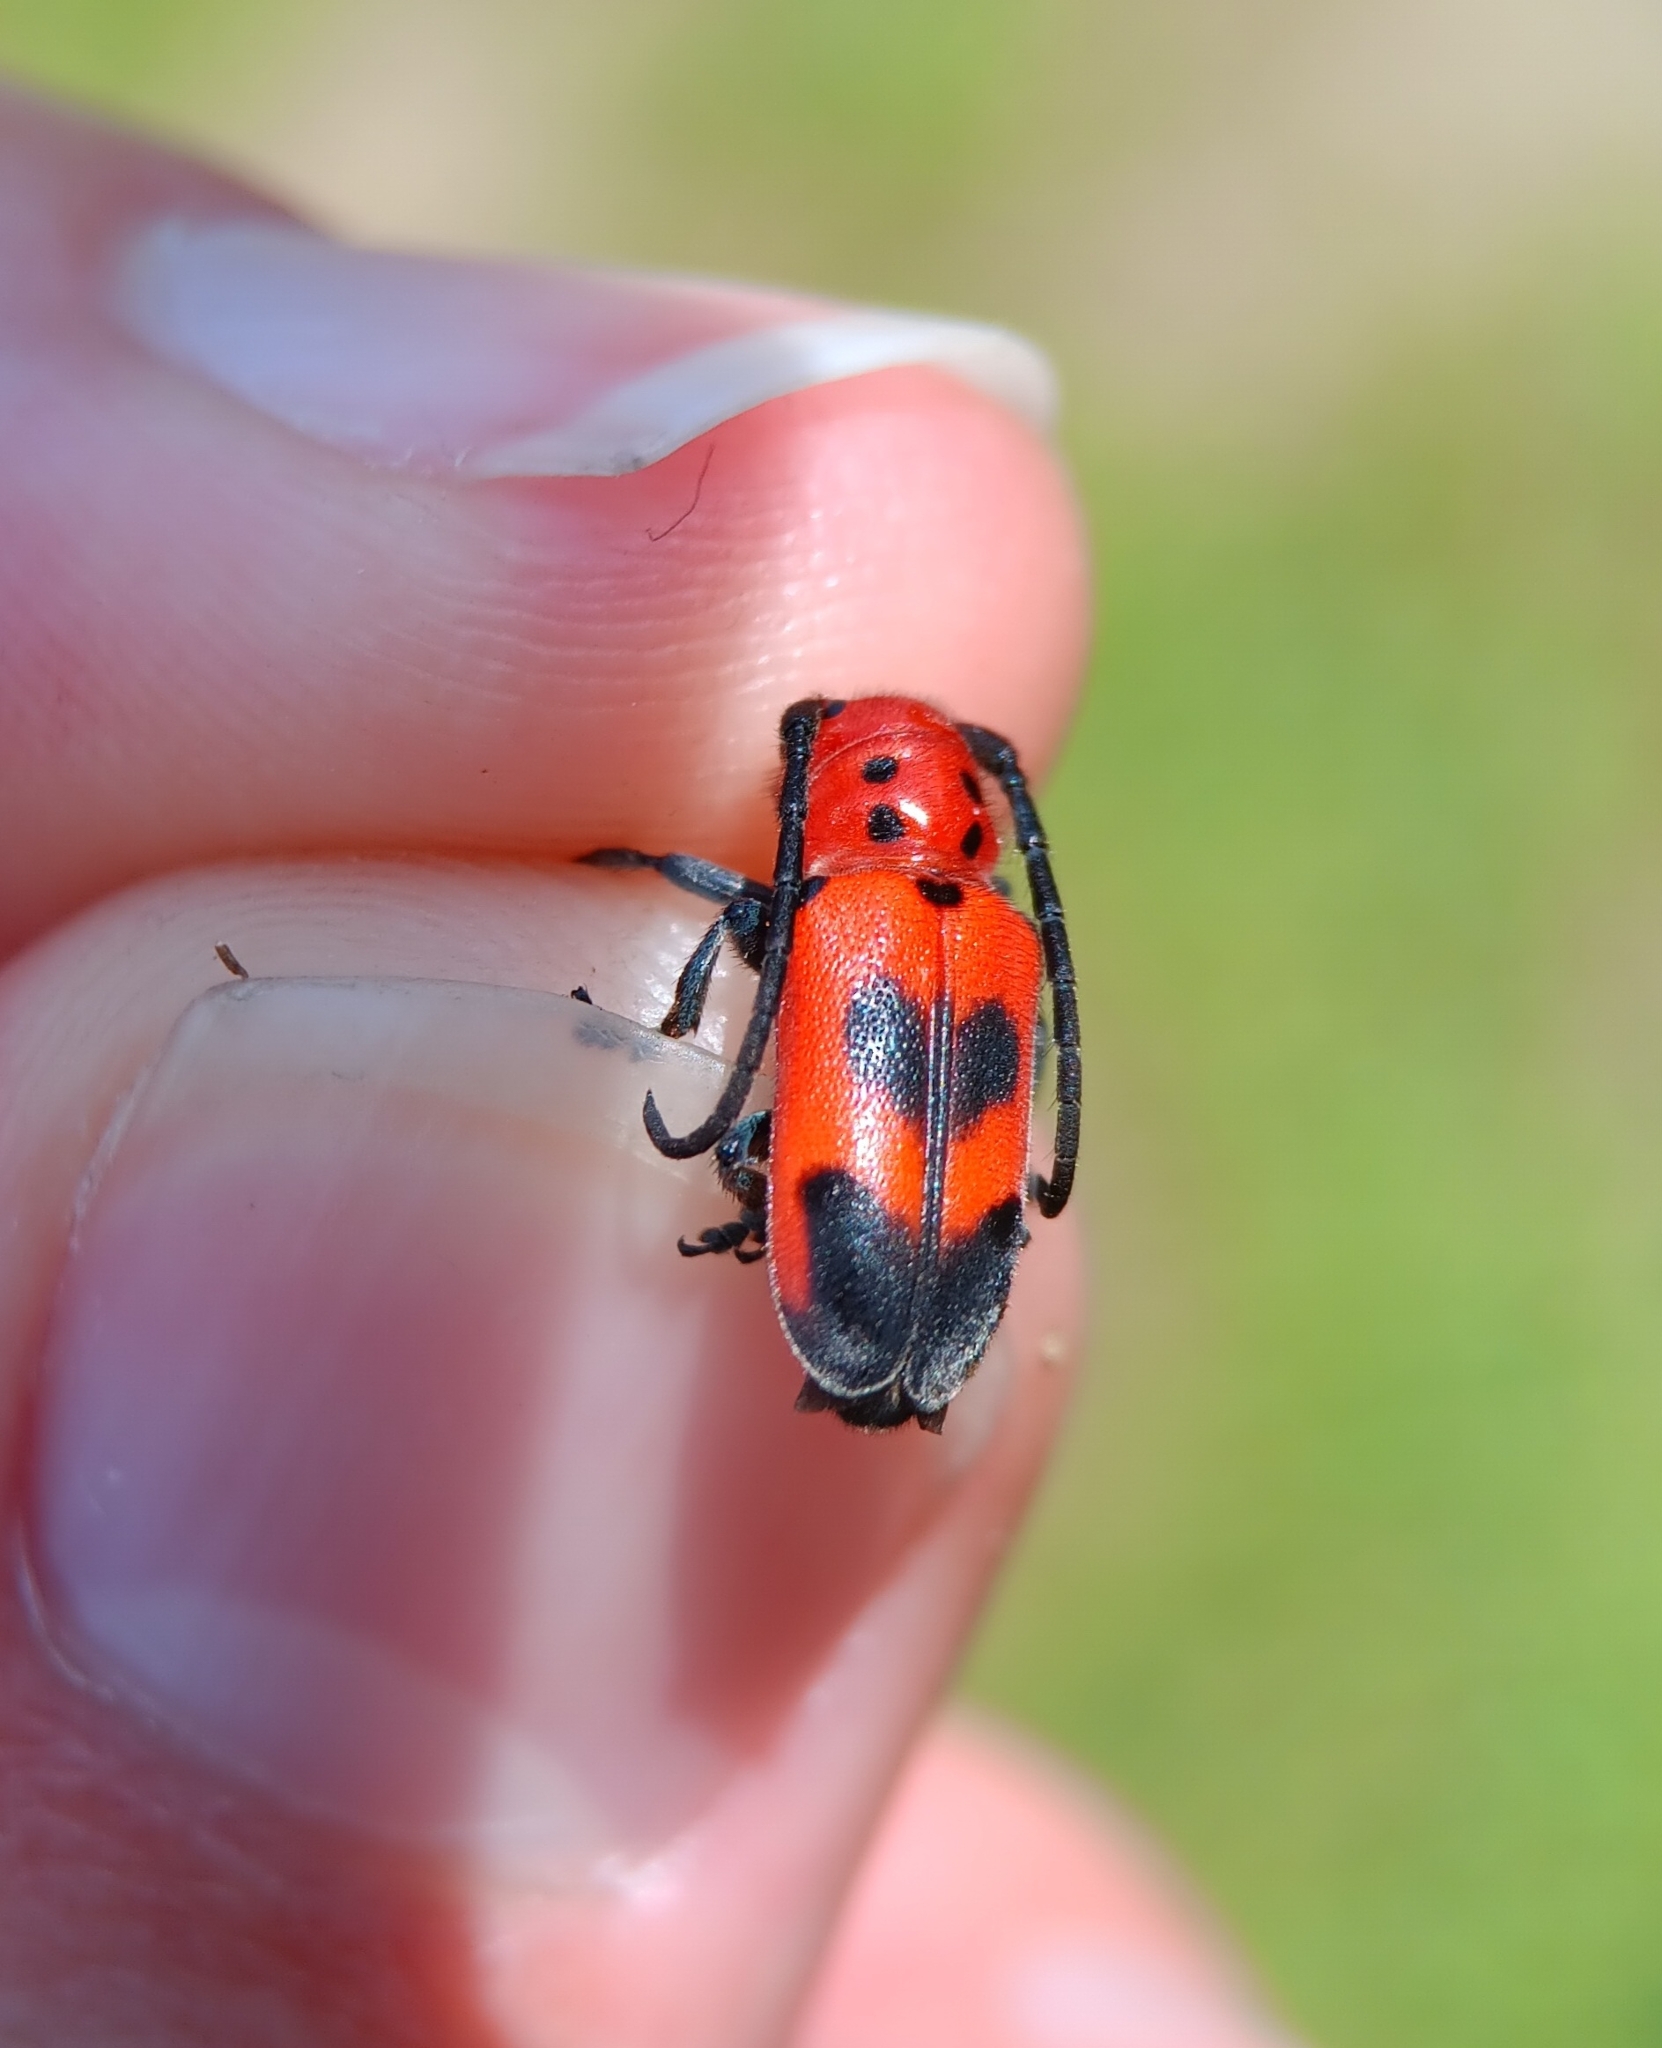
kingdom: Animalia
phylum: Arthropoda
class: Insecta
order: Coleoptera
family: Cerambycidae
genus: Tetraopes
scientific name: Tetraopes melanurus
